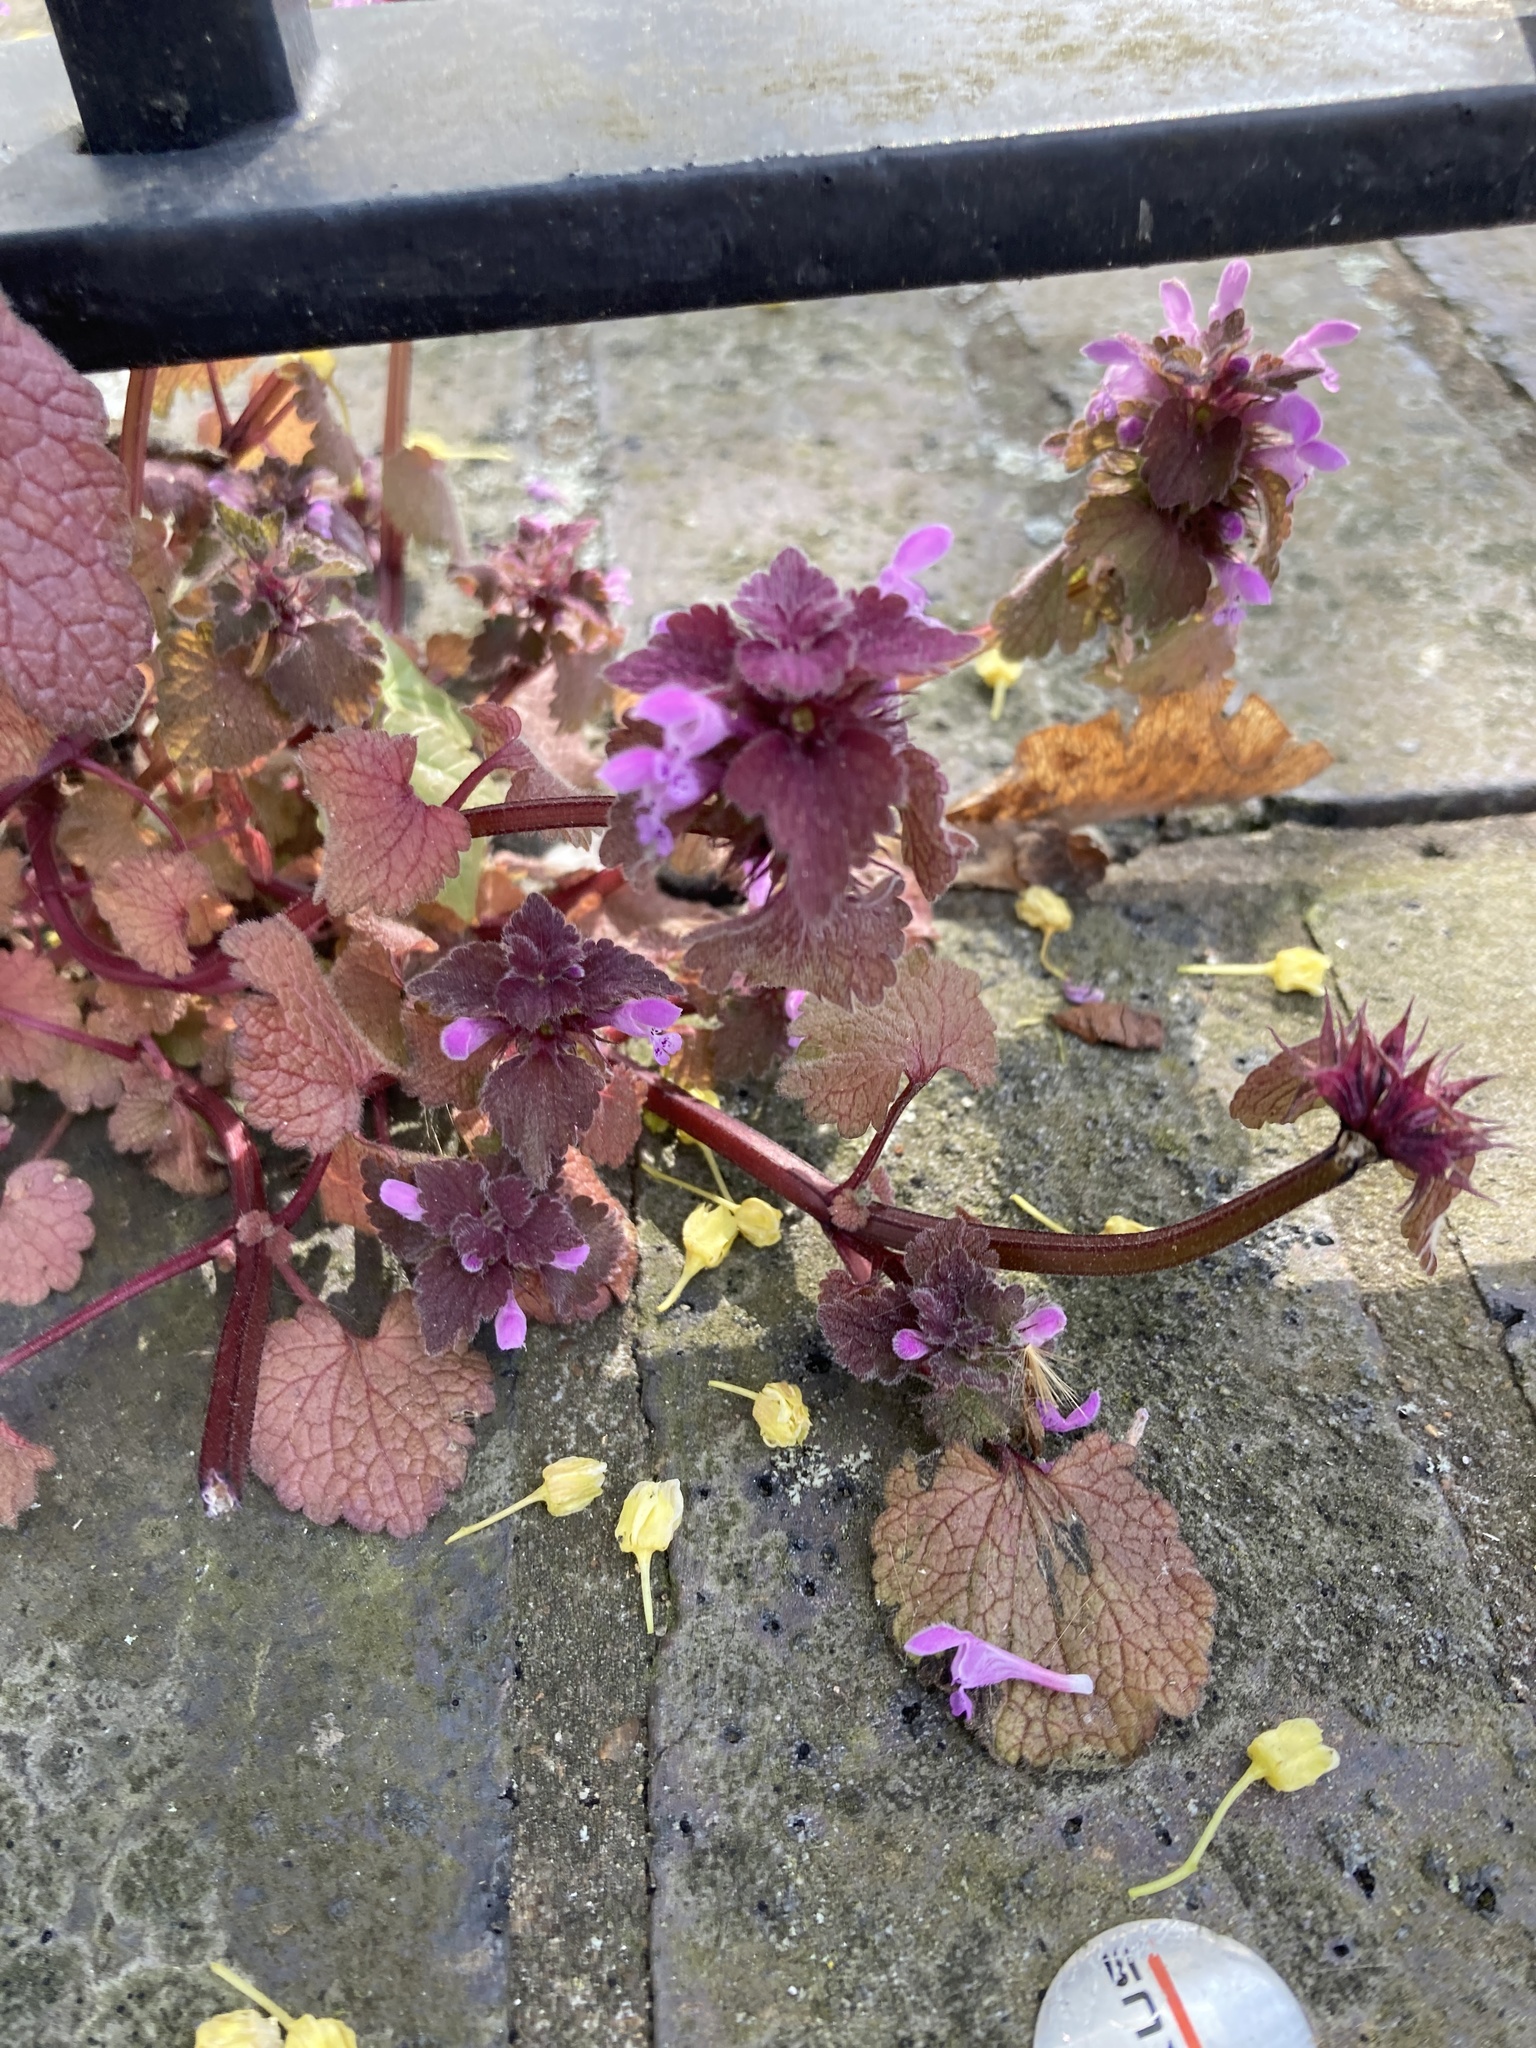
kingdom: Plantae
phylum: Tracheophyta
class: Magnoliopsida
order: Lamiales
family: Lamiaceae
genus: Lamium
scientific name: Lamium purpureum
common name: Red dead-nettle
